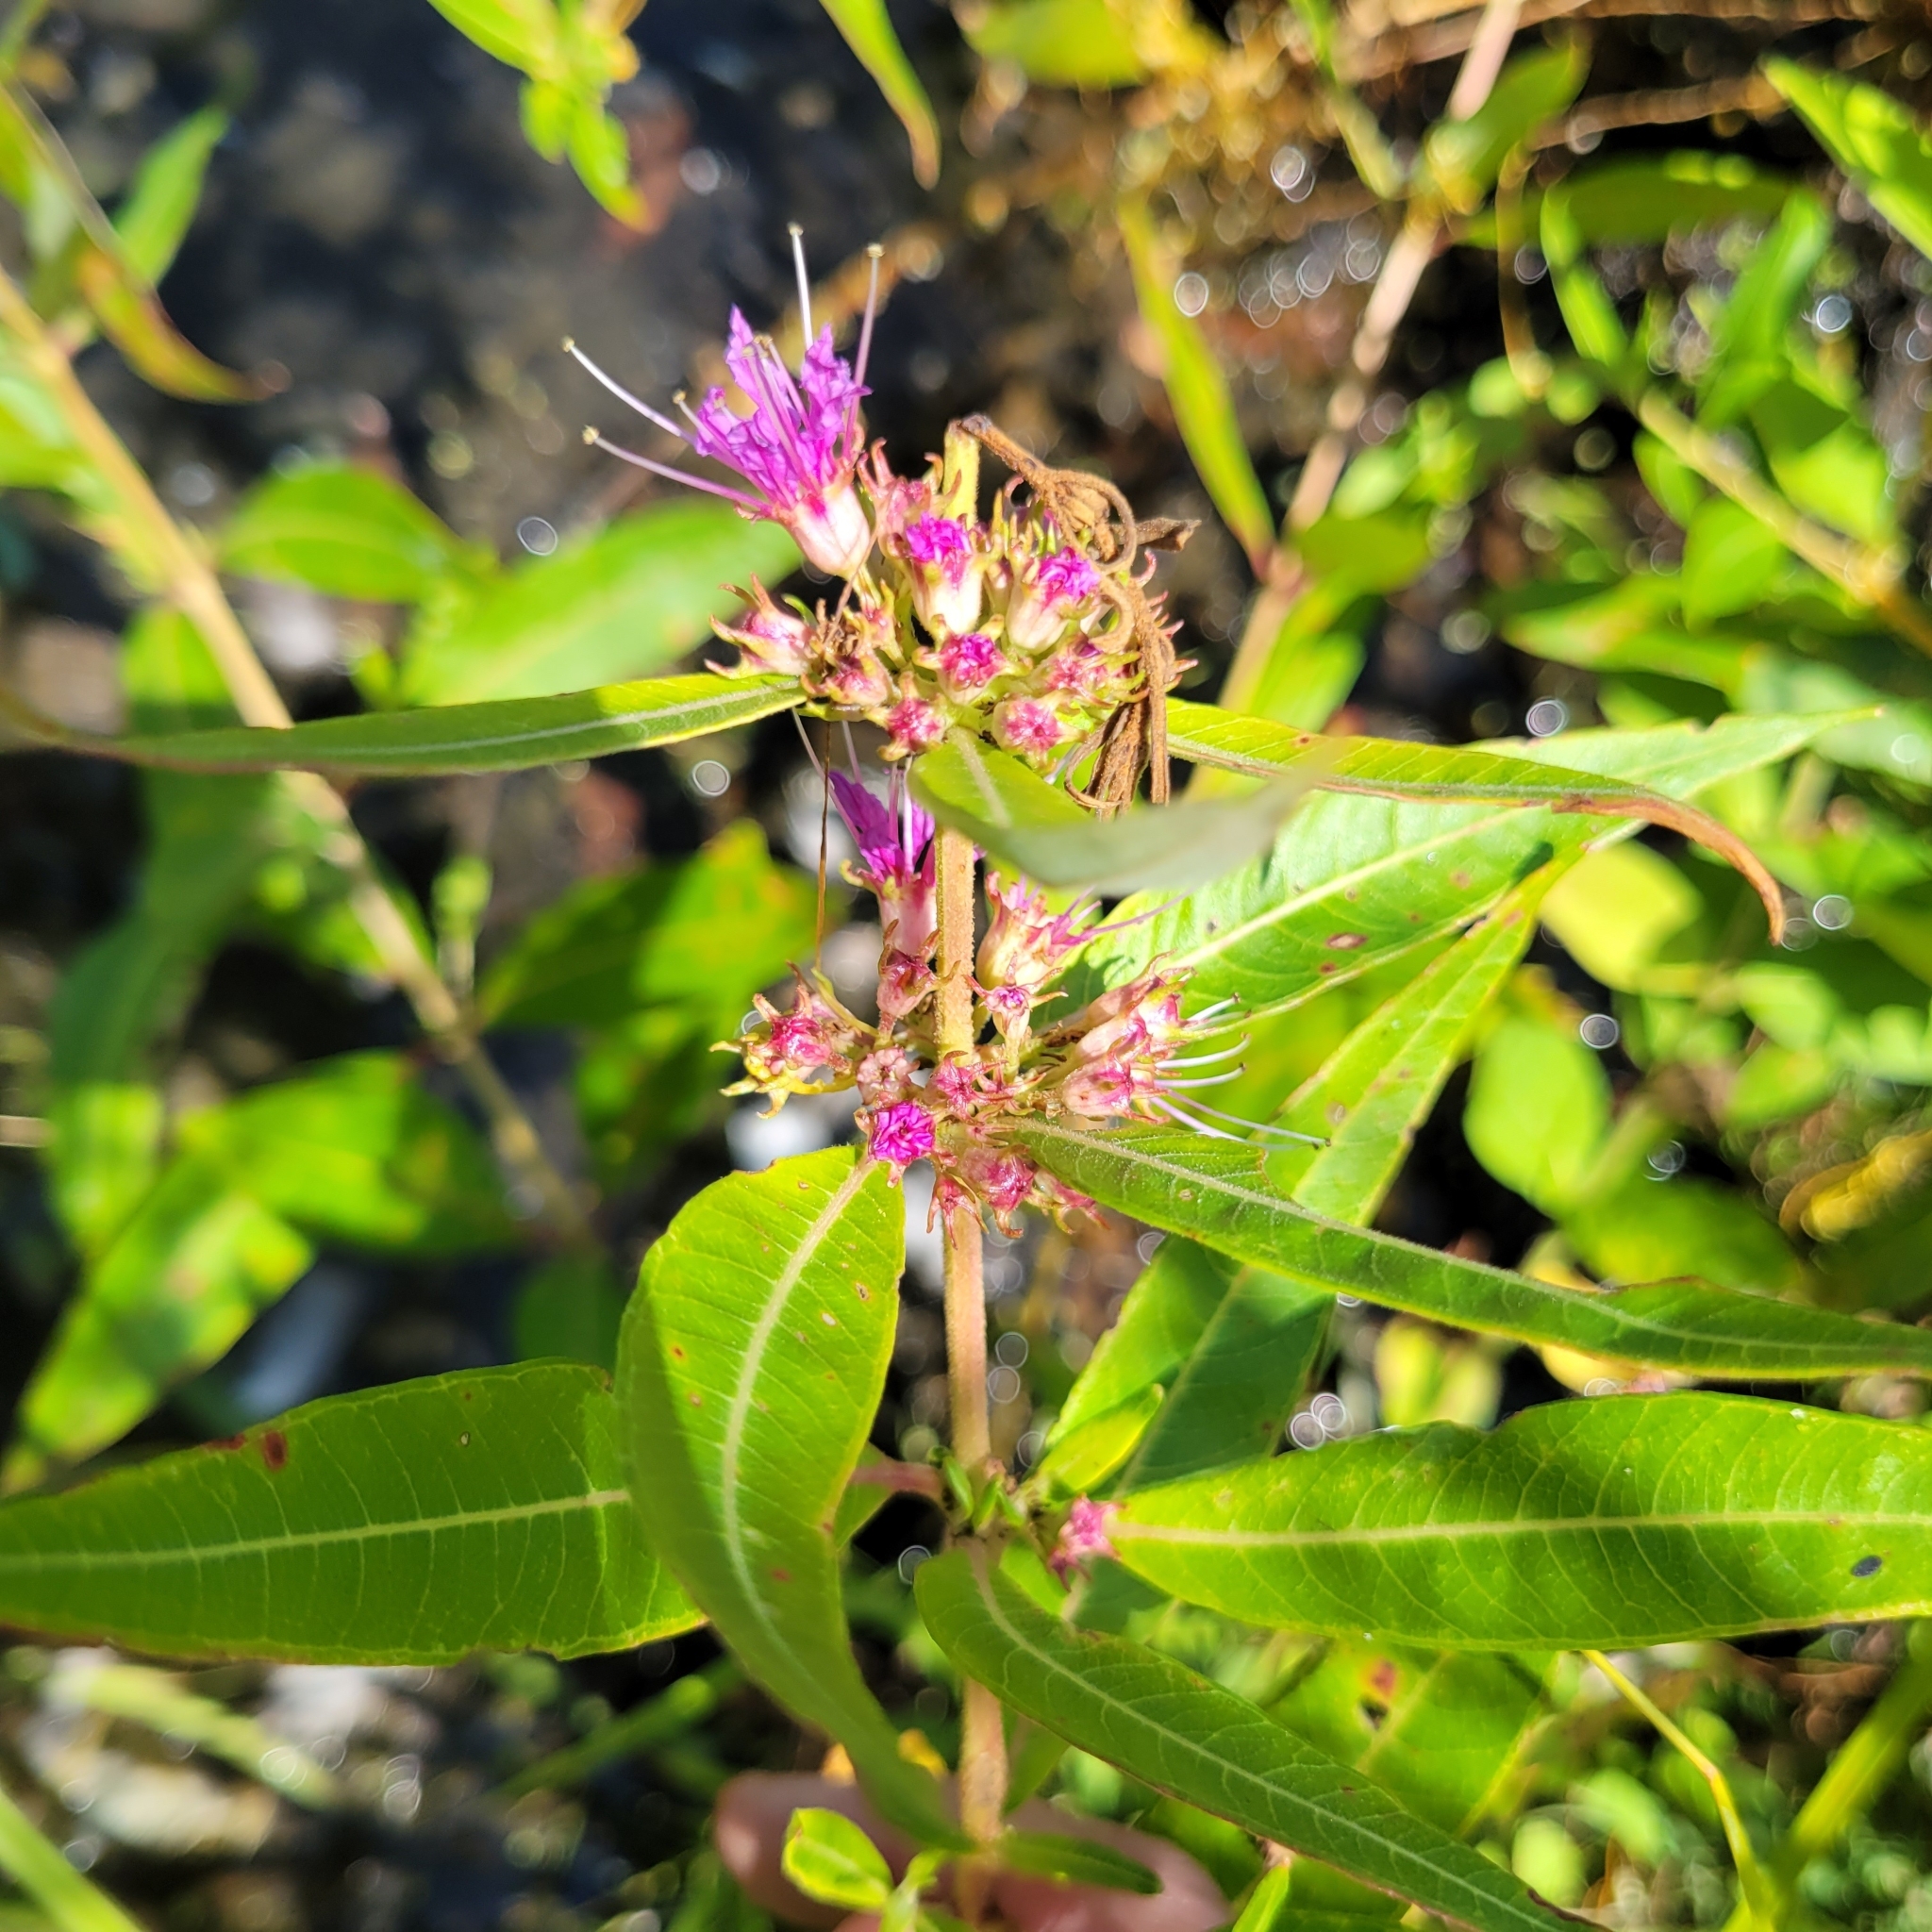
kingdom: Plantae
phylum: Tracheophyta
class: Magnoliopsida
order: Myrtales
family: Lythraceae
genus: Decodon
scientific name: Decodon verticillatus
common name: Hairy swamp loosestrife
